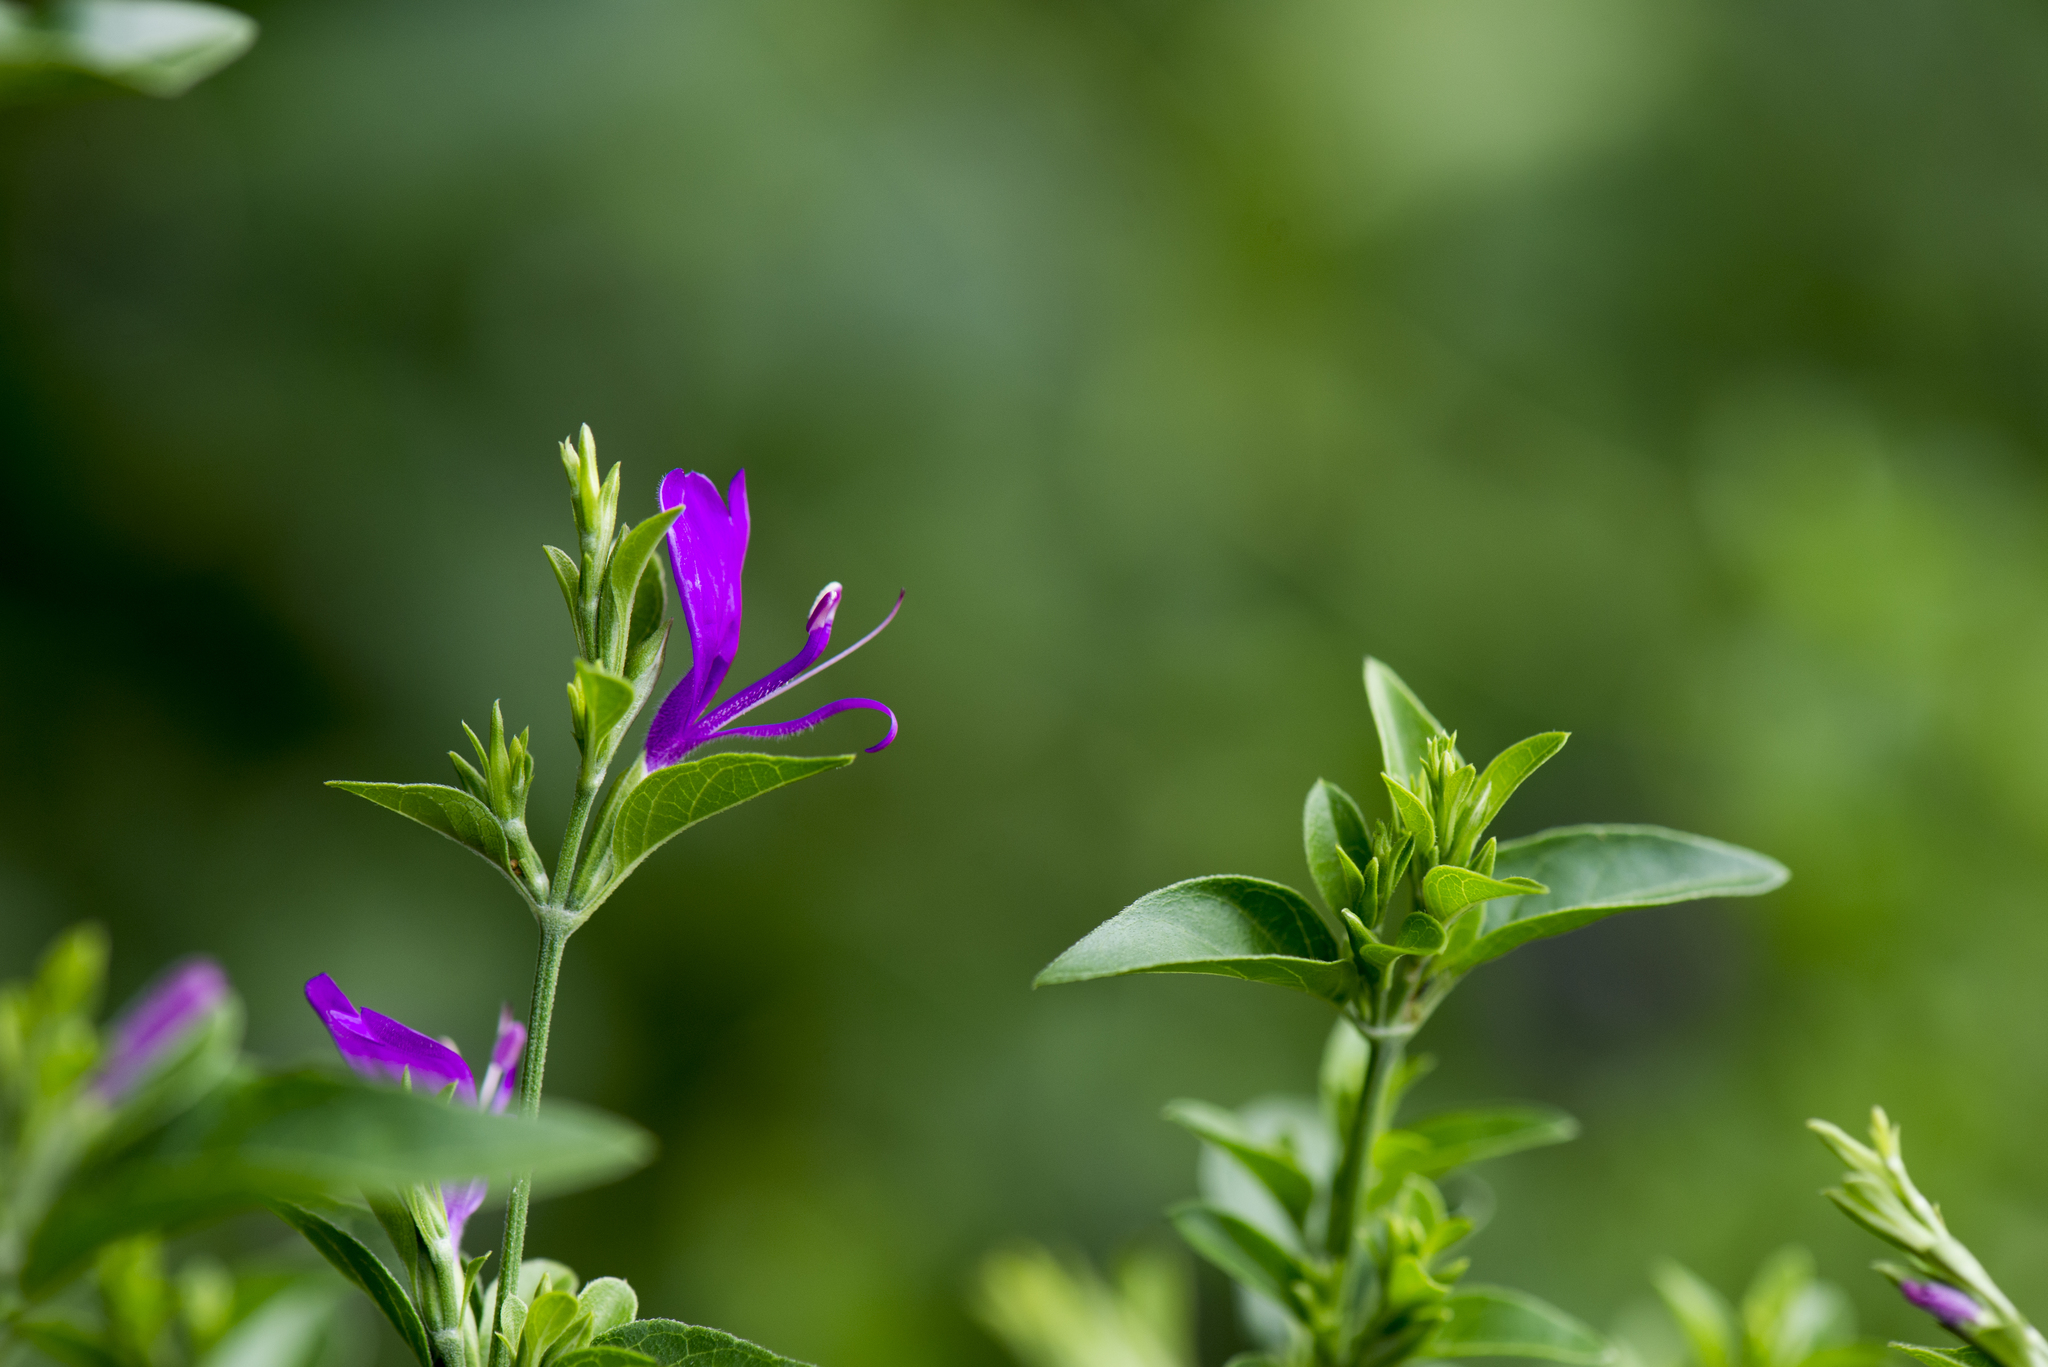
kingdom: Plantae
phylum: Tracheophyta
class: Magnoliopsida
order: Lamiales
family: Acanthaceae
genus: Hypoestes
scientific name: Hypoestes purpurea
